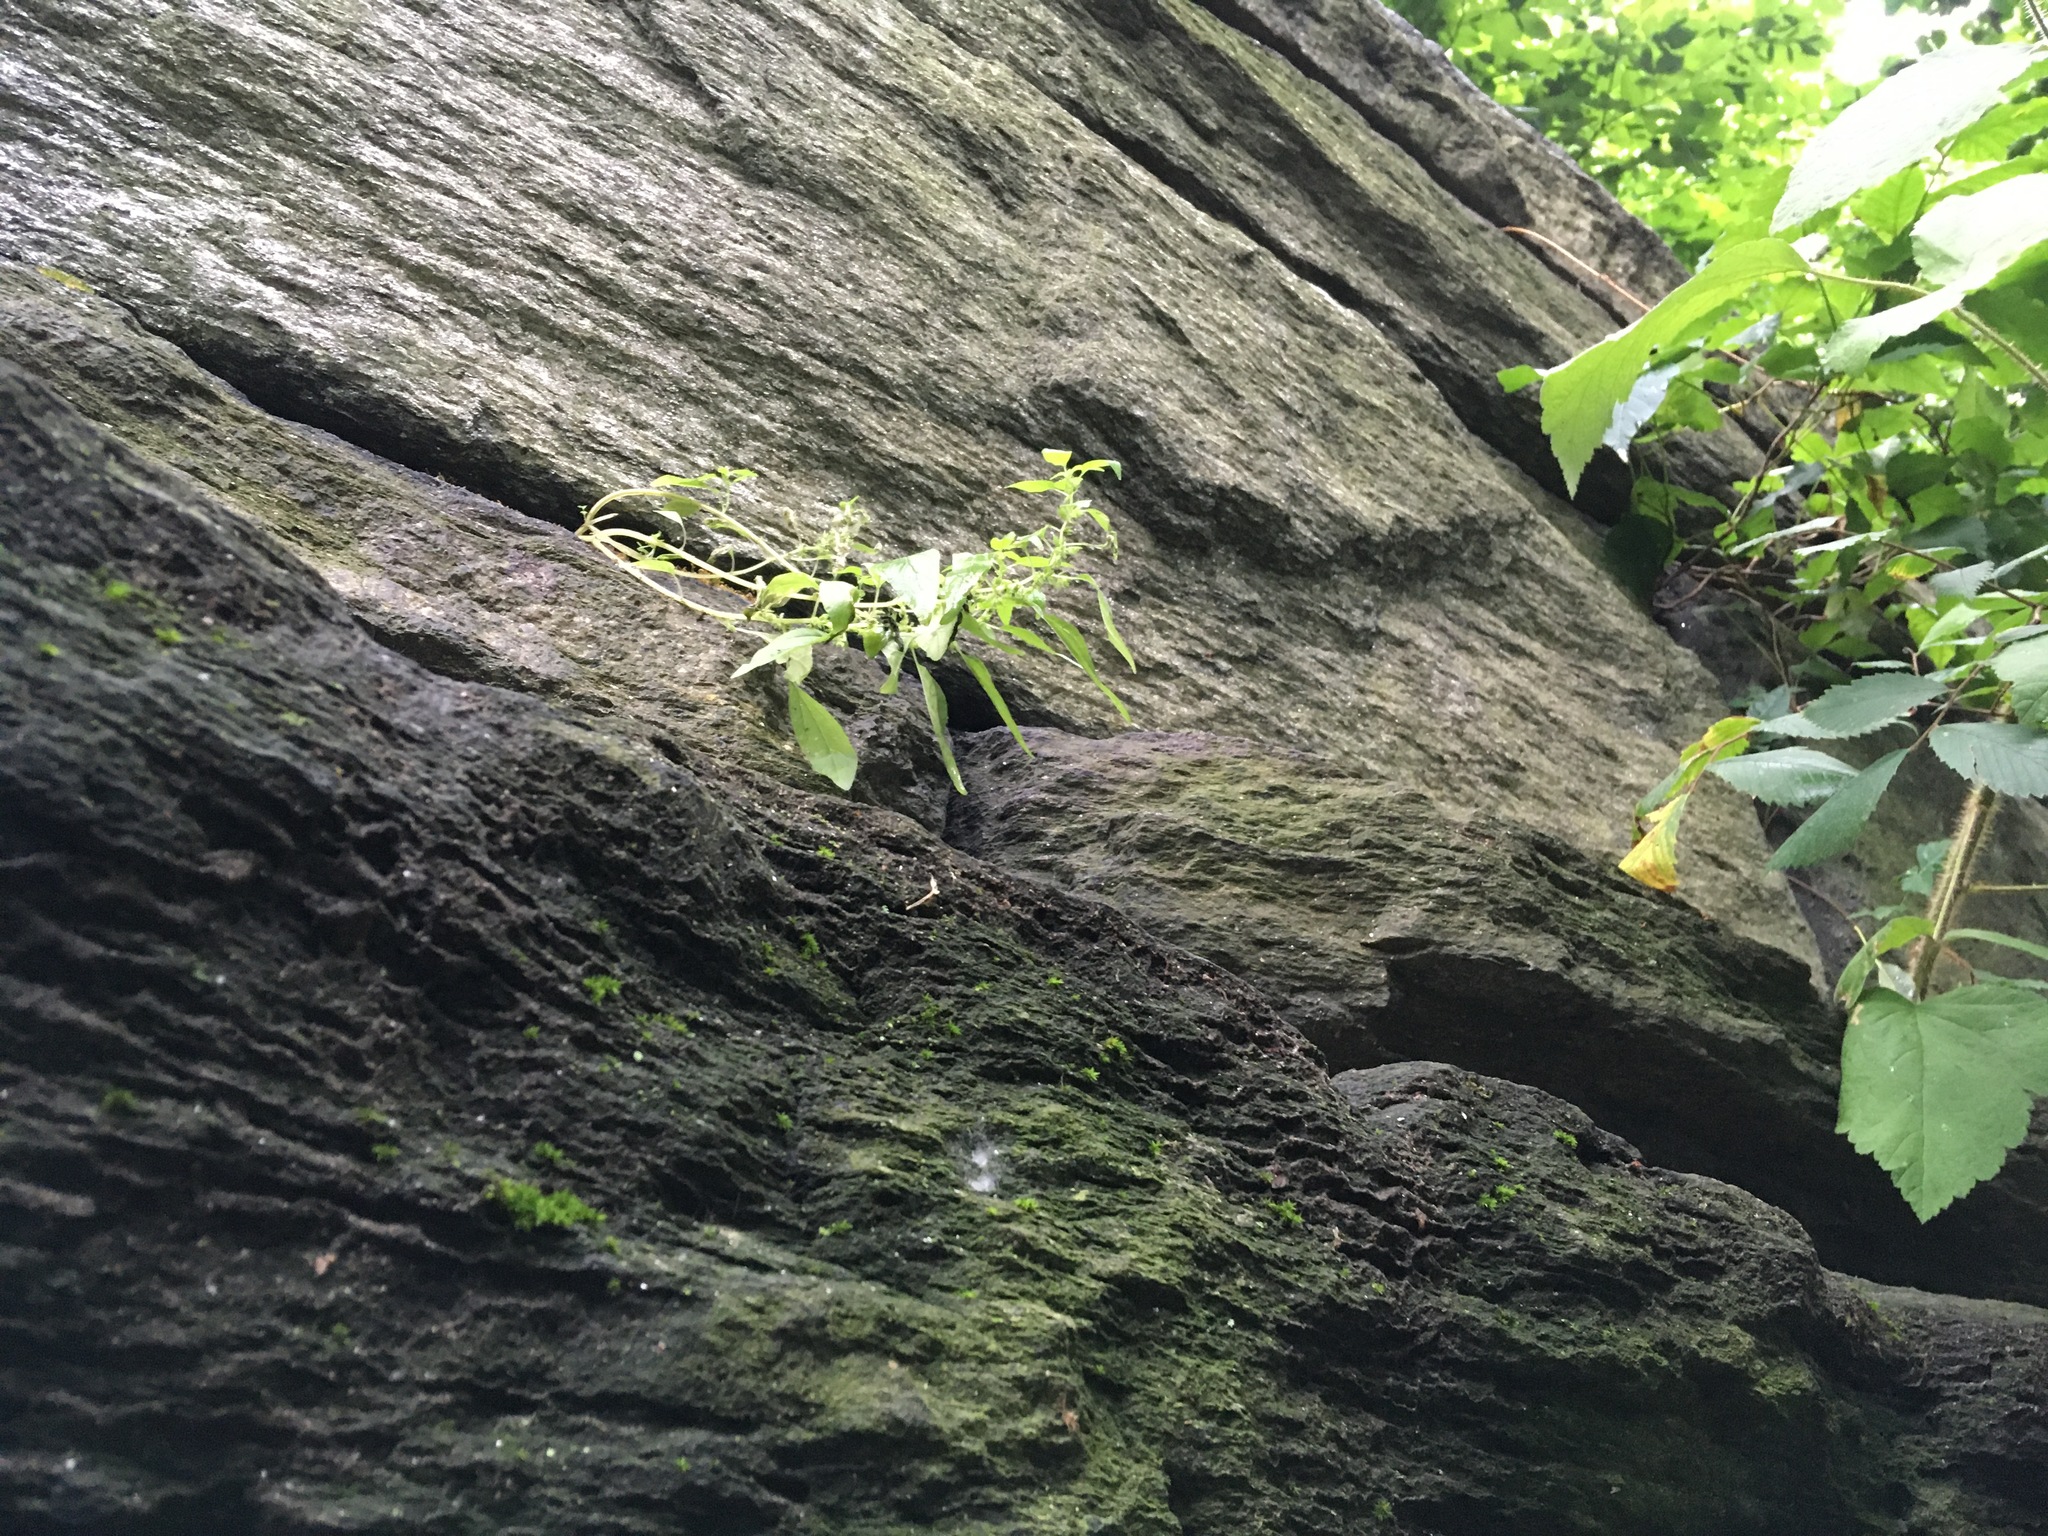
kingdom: Plantae
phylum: Tracheophyta
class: Magnoliopsida
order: Rosales
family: Urticaceae
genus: Parietaria
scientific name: Parietaria pensylvanica
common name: Pennsylvania pellitory
